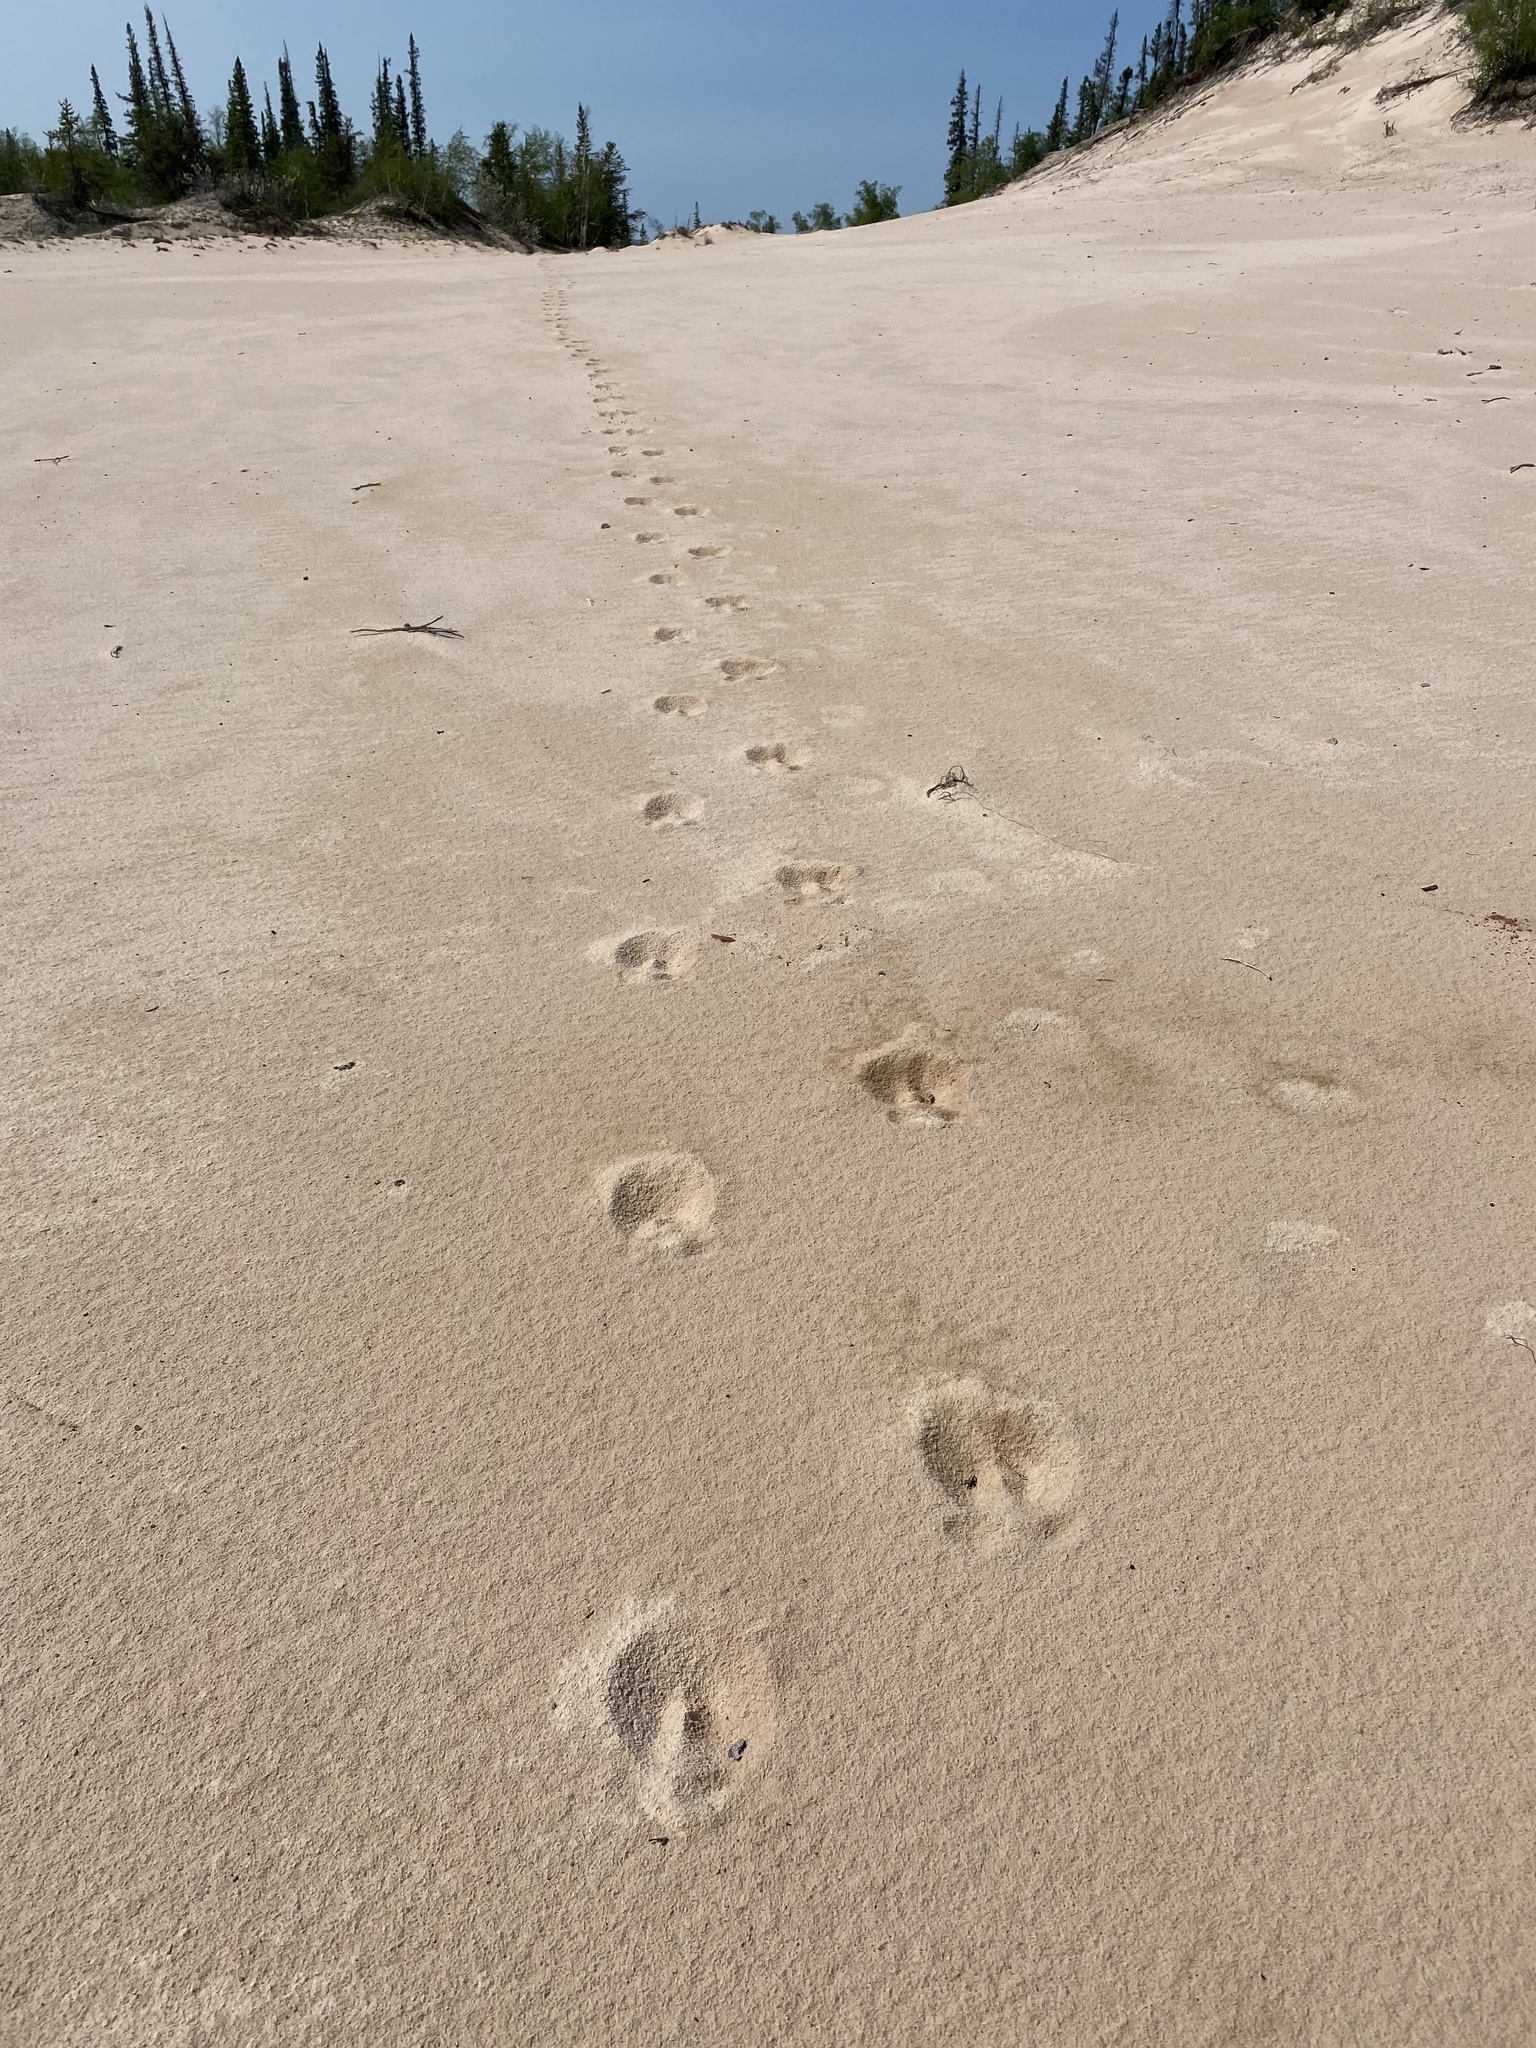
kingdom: Animalia
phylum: Chordata
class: Mammalia
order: Artiodactyla
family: Cervidae
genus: Rangifer
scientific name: Rangifer tarandus
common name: Reindeer
